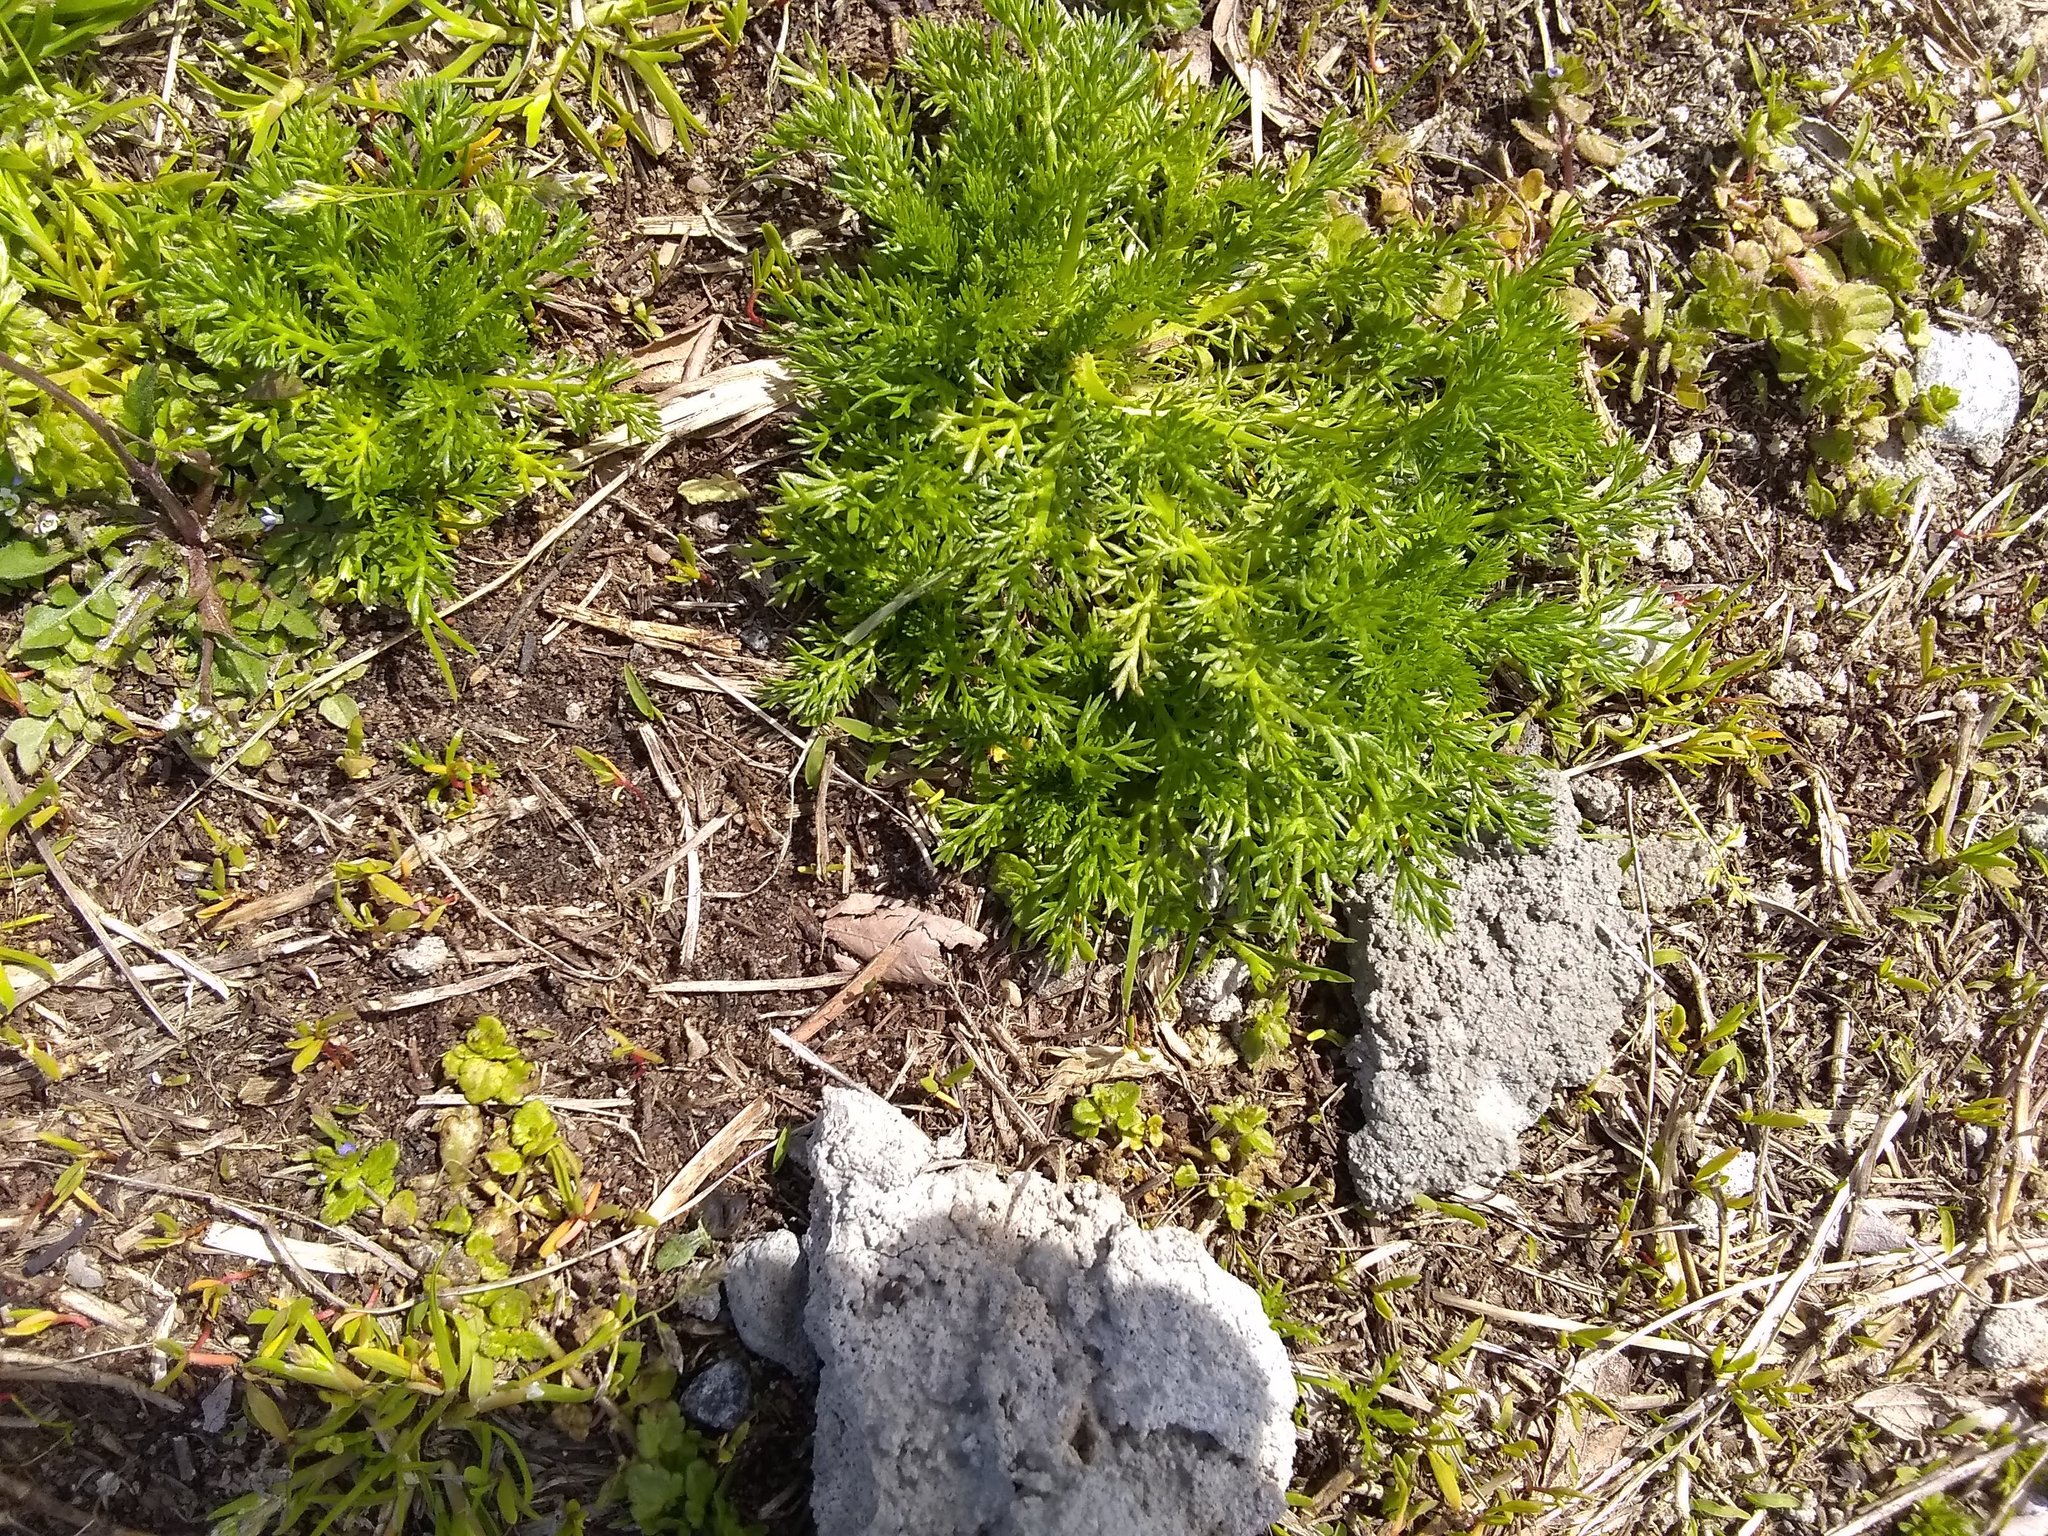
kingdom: Plantae
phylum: Tracheophyta
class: Magnoliopsida
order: Asterales
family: Asteraceae
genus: Matricaria
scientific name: Matricaria discoidea
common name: Disc mayweed
